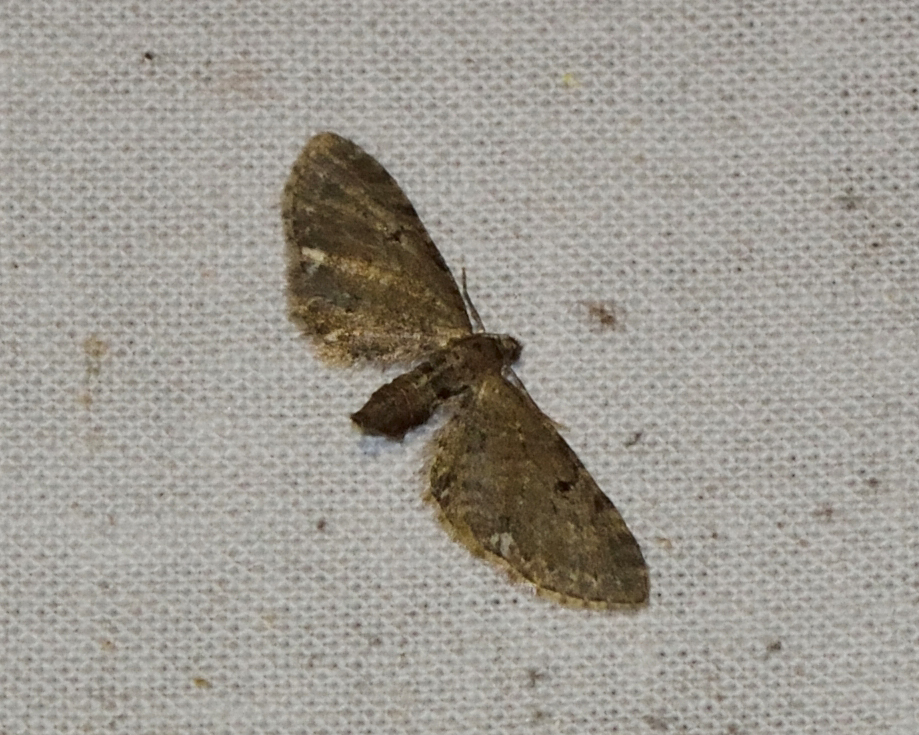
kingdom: Animalia
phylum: Arthropoda
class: Insecta
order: Lepidoptera
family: Geometridae
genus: Eupithecia
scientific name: Eupithecia assimilata
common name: Currant pug
